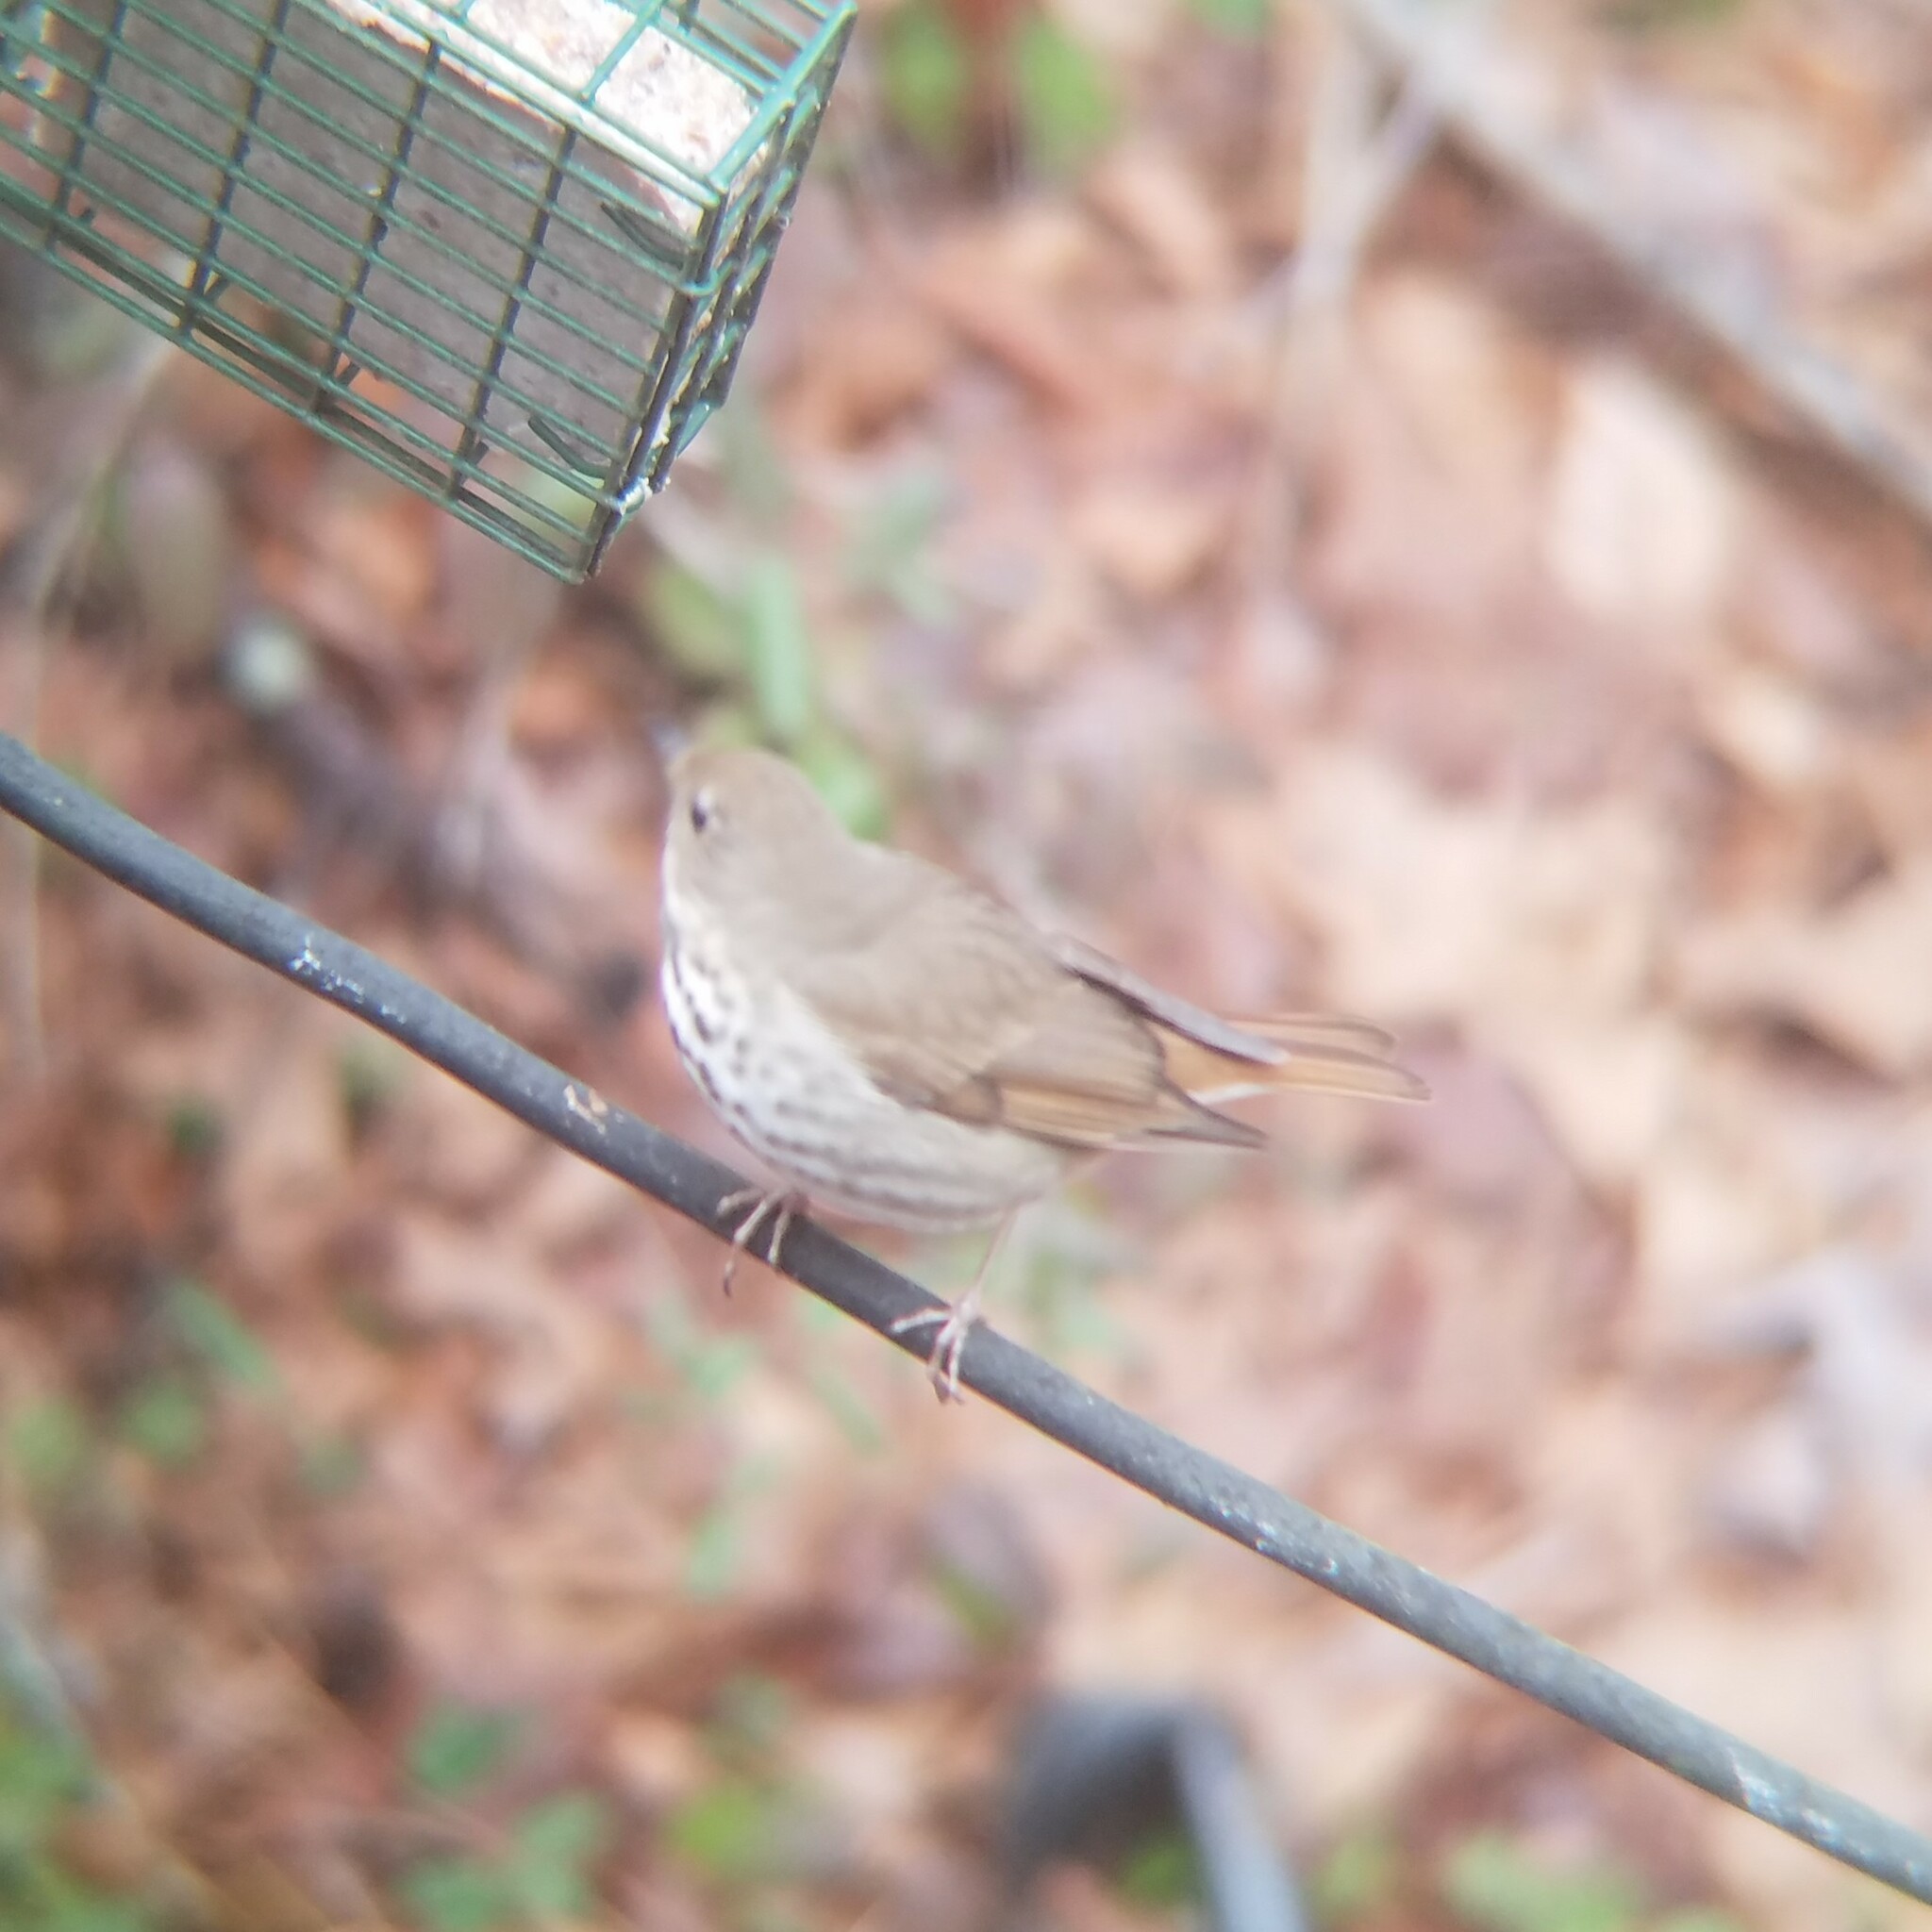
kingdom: Animalia
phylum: Chordata
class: Aves
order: Passeriformes
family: Turdidae
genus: Catharus
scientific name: Catharus guttatus
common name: Hermit thrush
